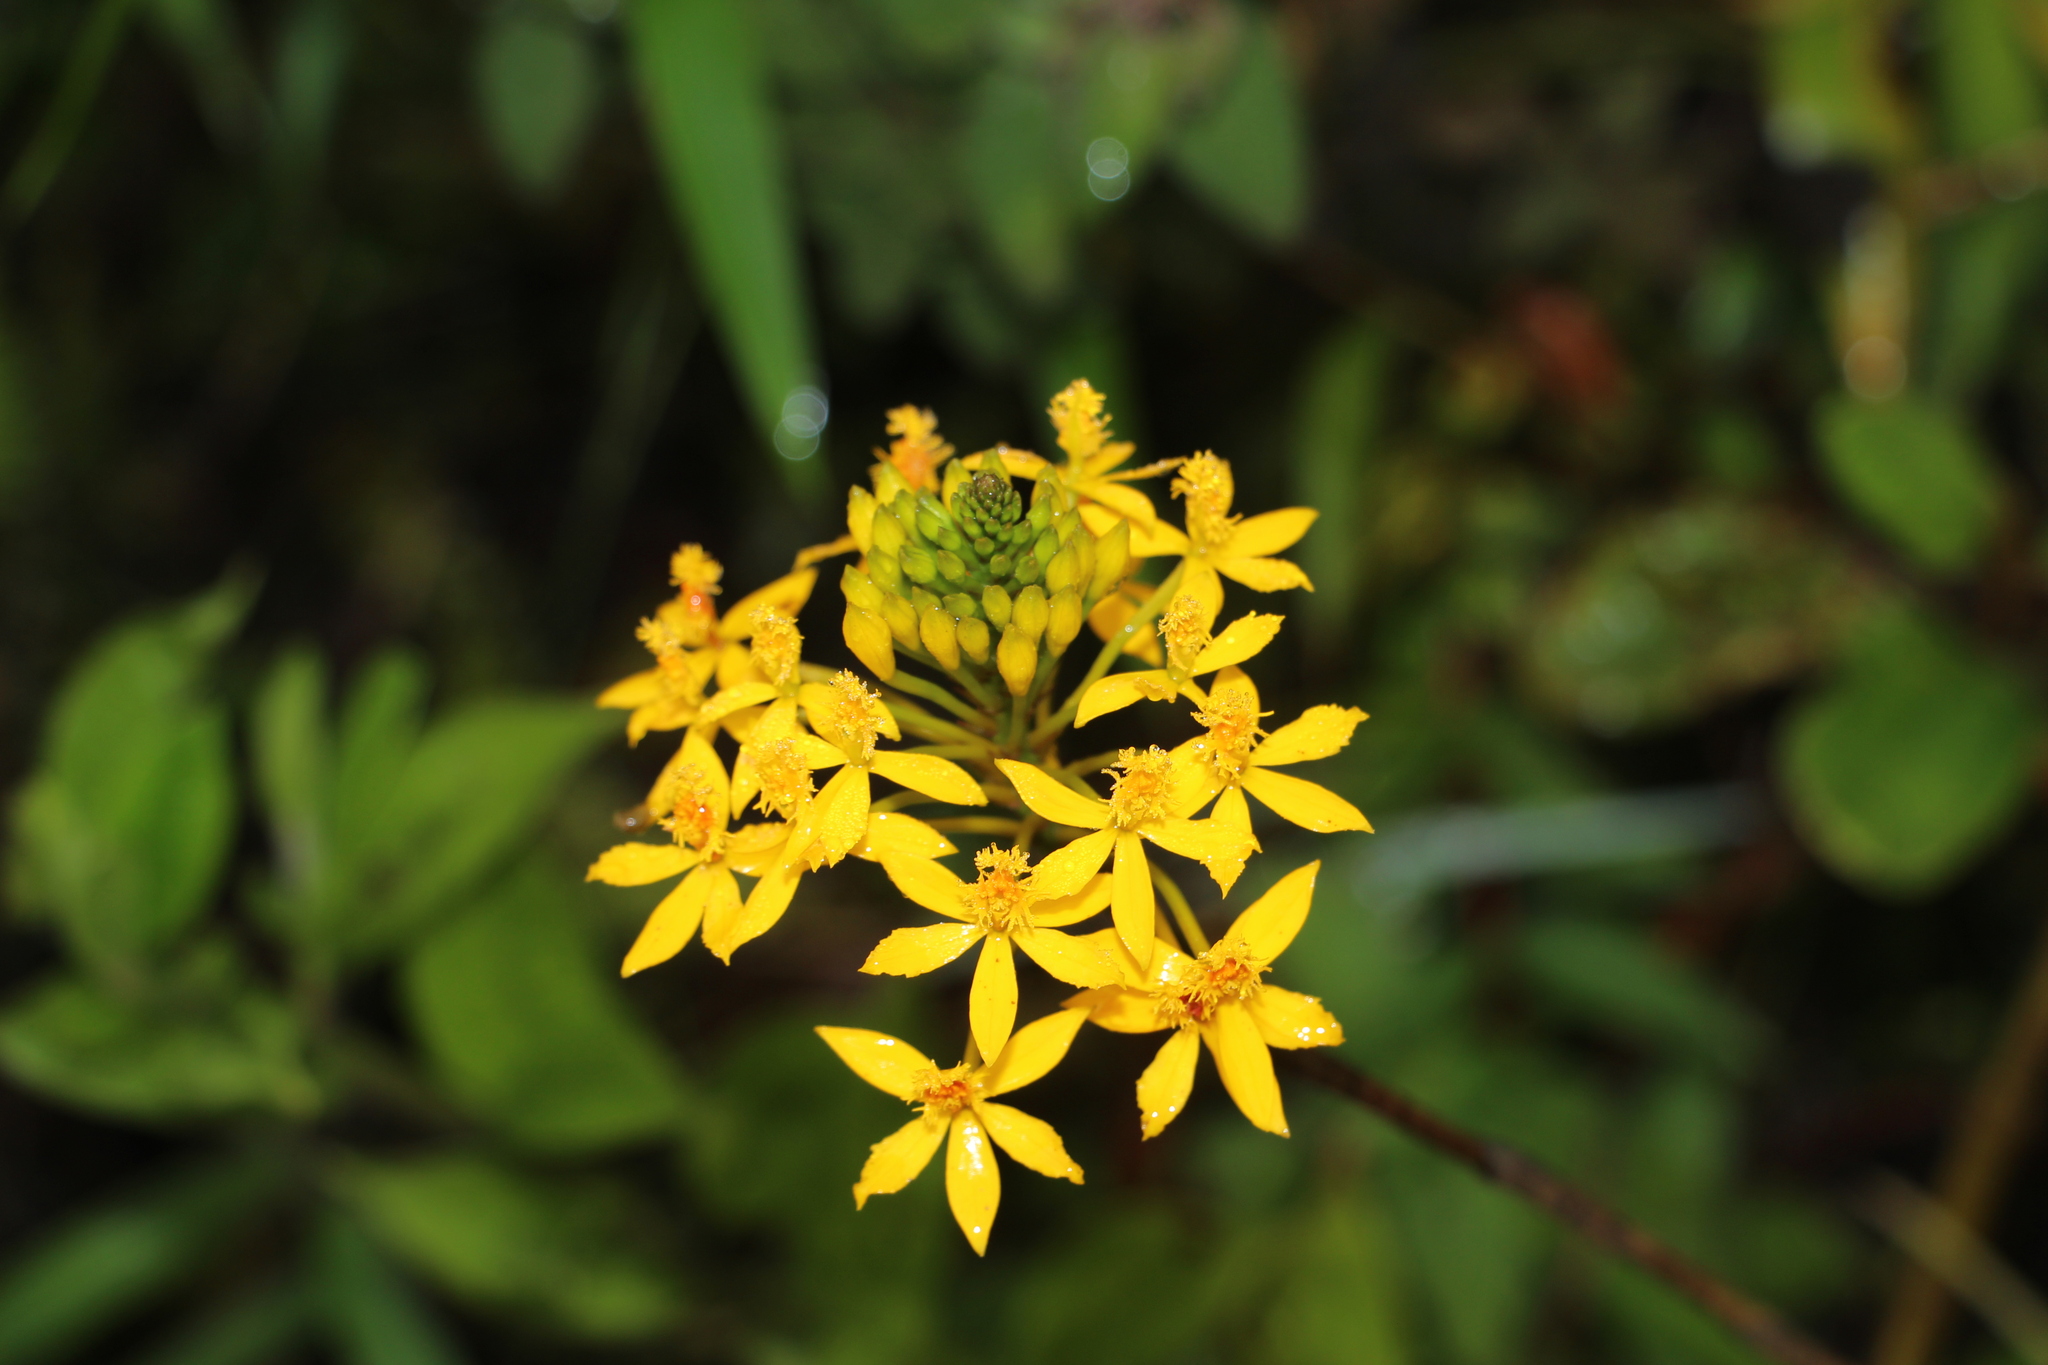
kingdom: Plantae
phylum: Tracheophyta
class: Liliopsida
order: Asparagales
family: Orchidaceae
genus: Epidendrum
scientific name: Epidendrum aura-usecheae
